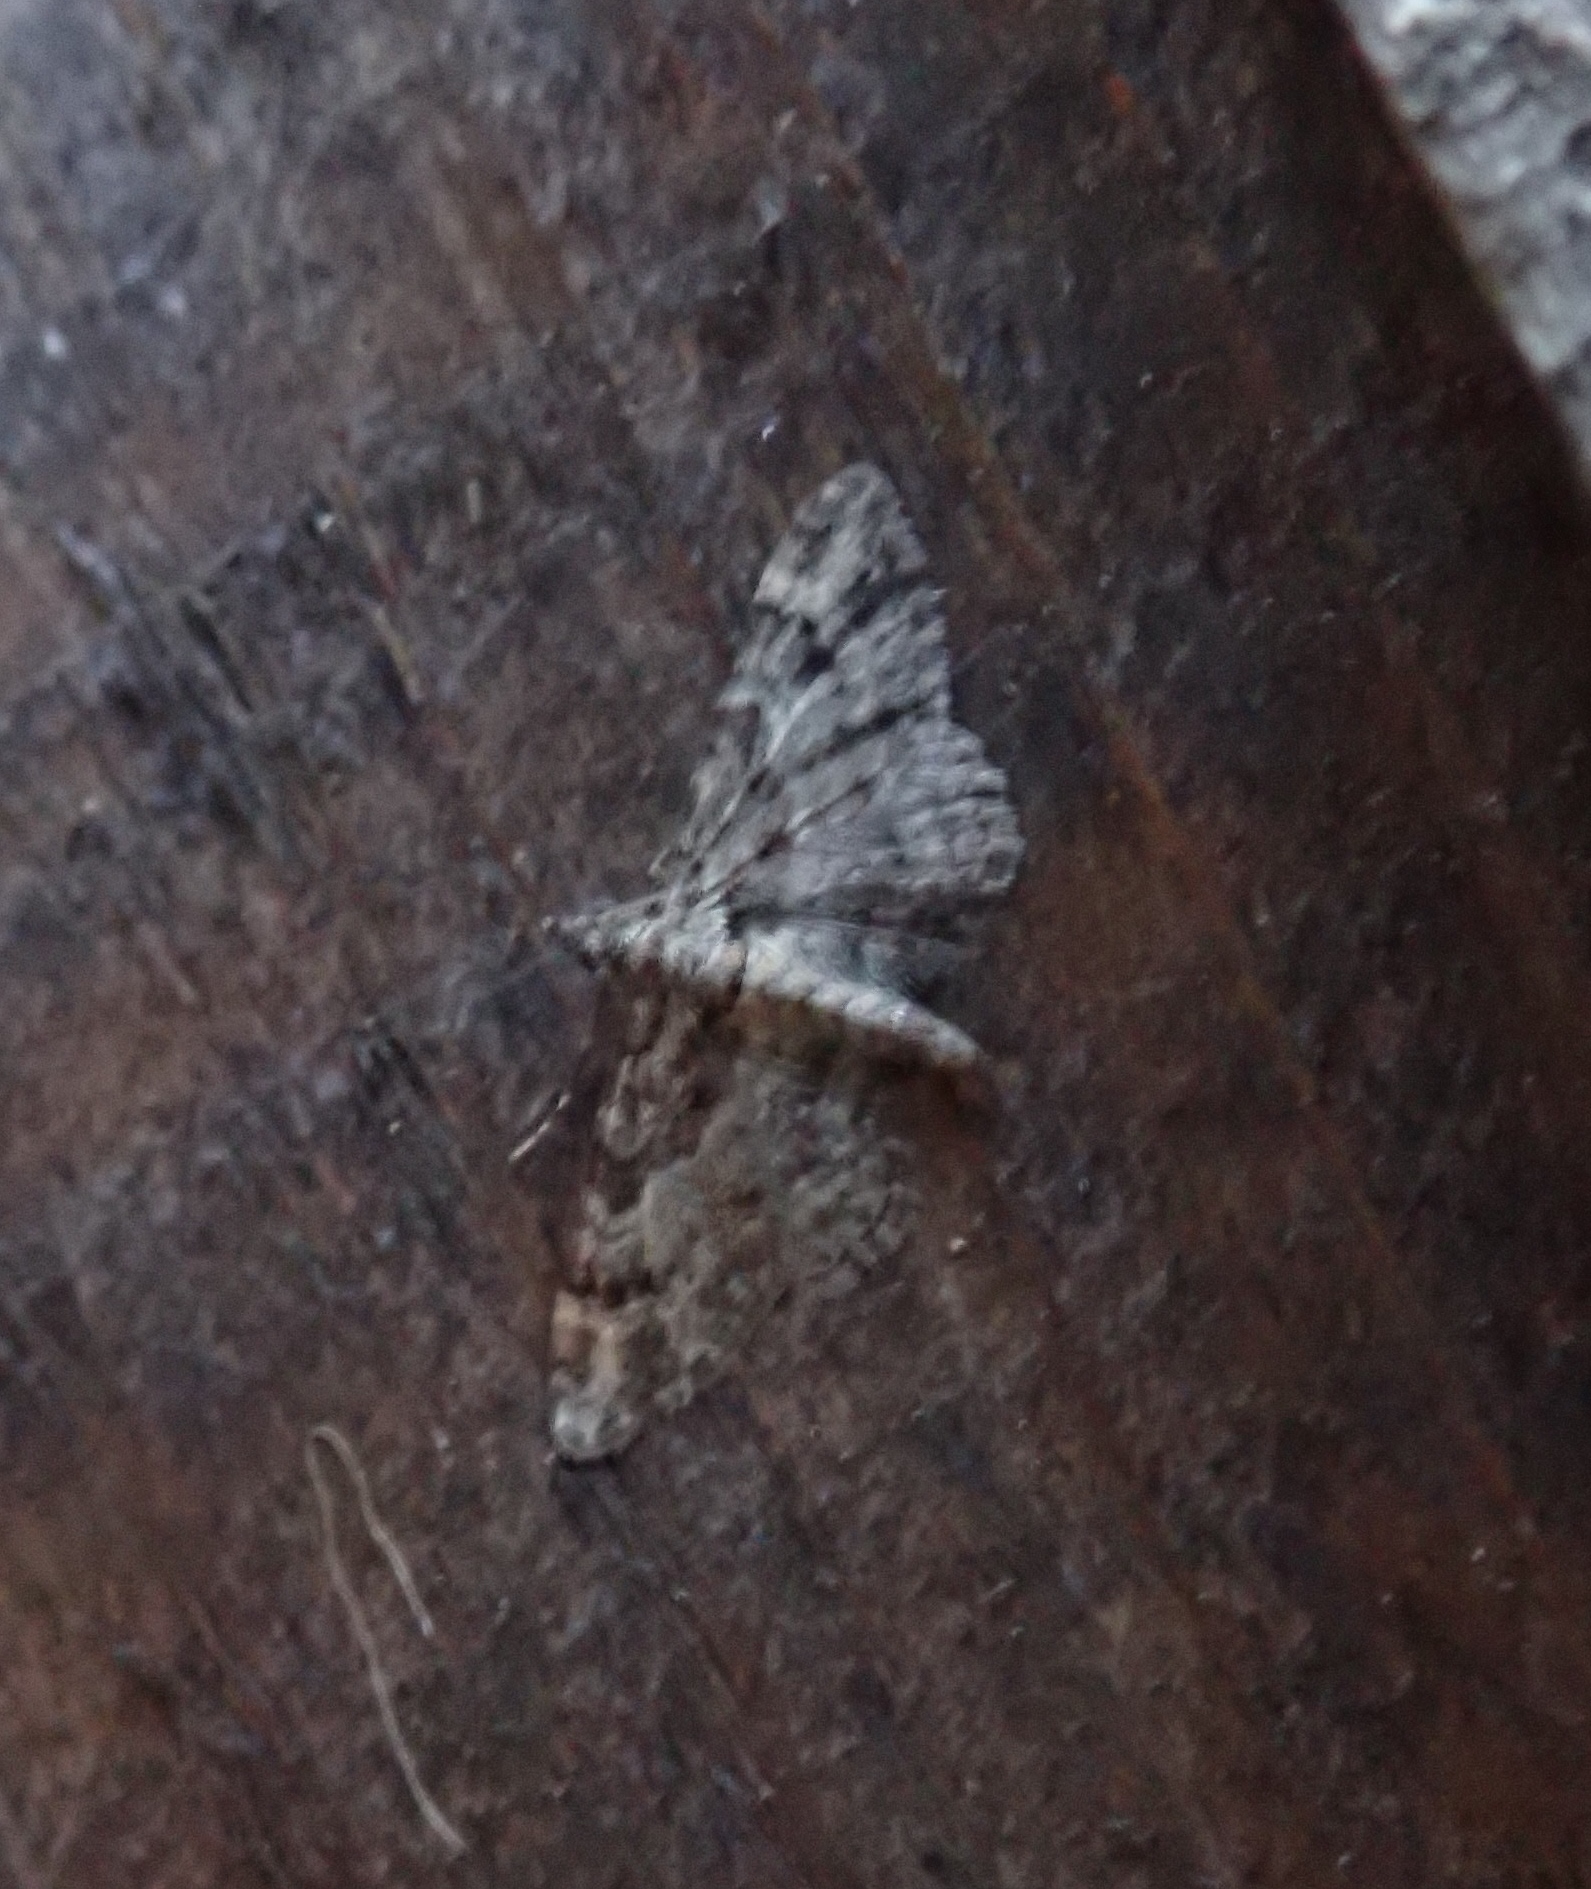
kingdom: Animalia
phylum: Arthropoda
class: Insecta
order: Lepidoptera
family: Geometridae
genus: Gymnoscelis
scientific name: Gymnoscelis rufifasciata
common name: Double-striped pug
